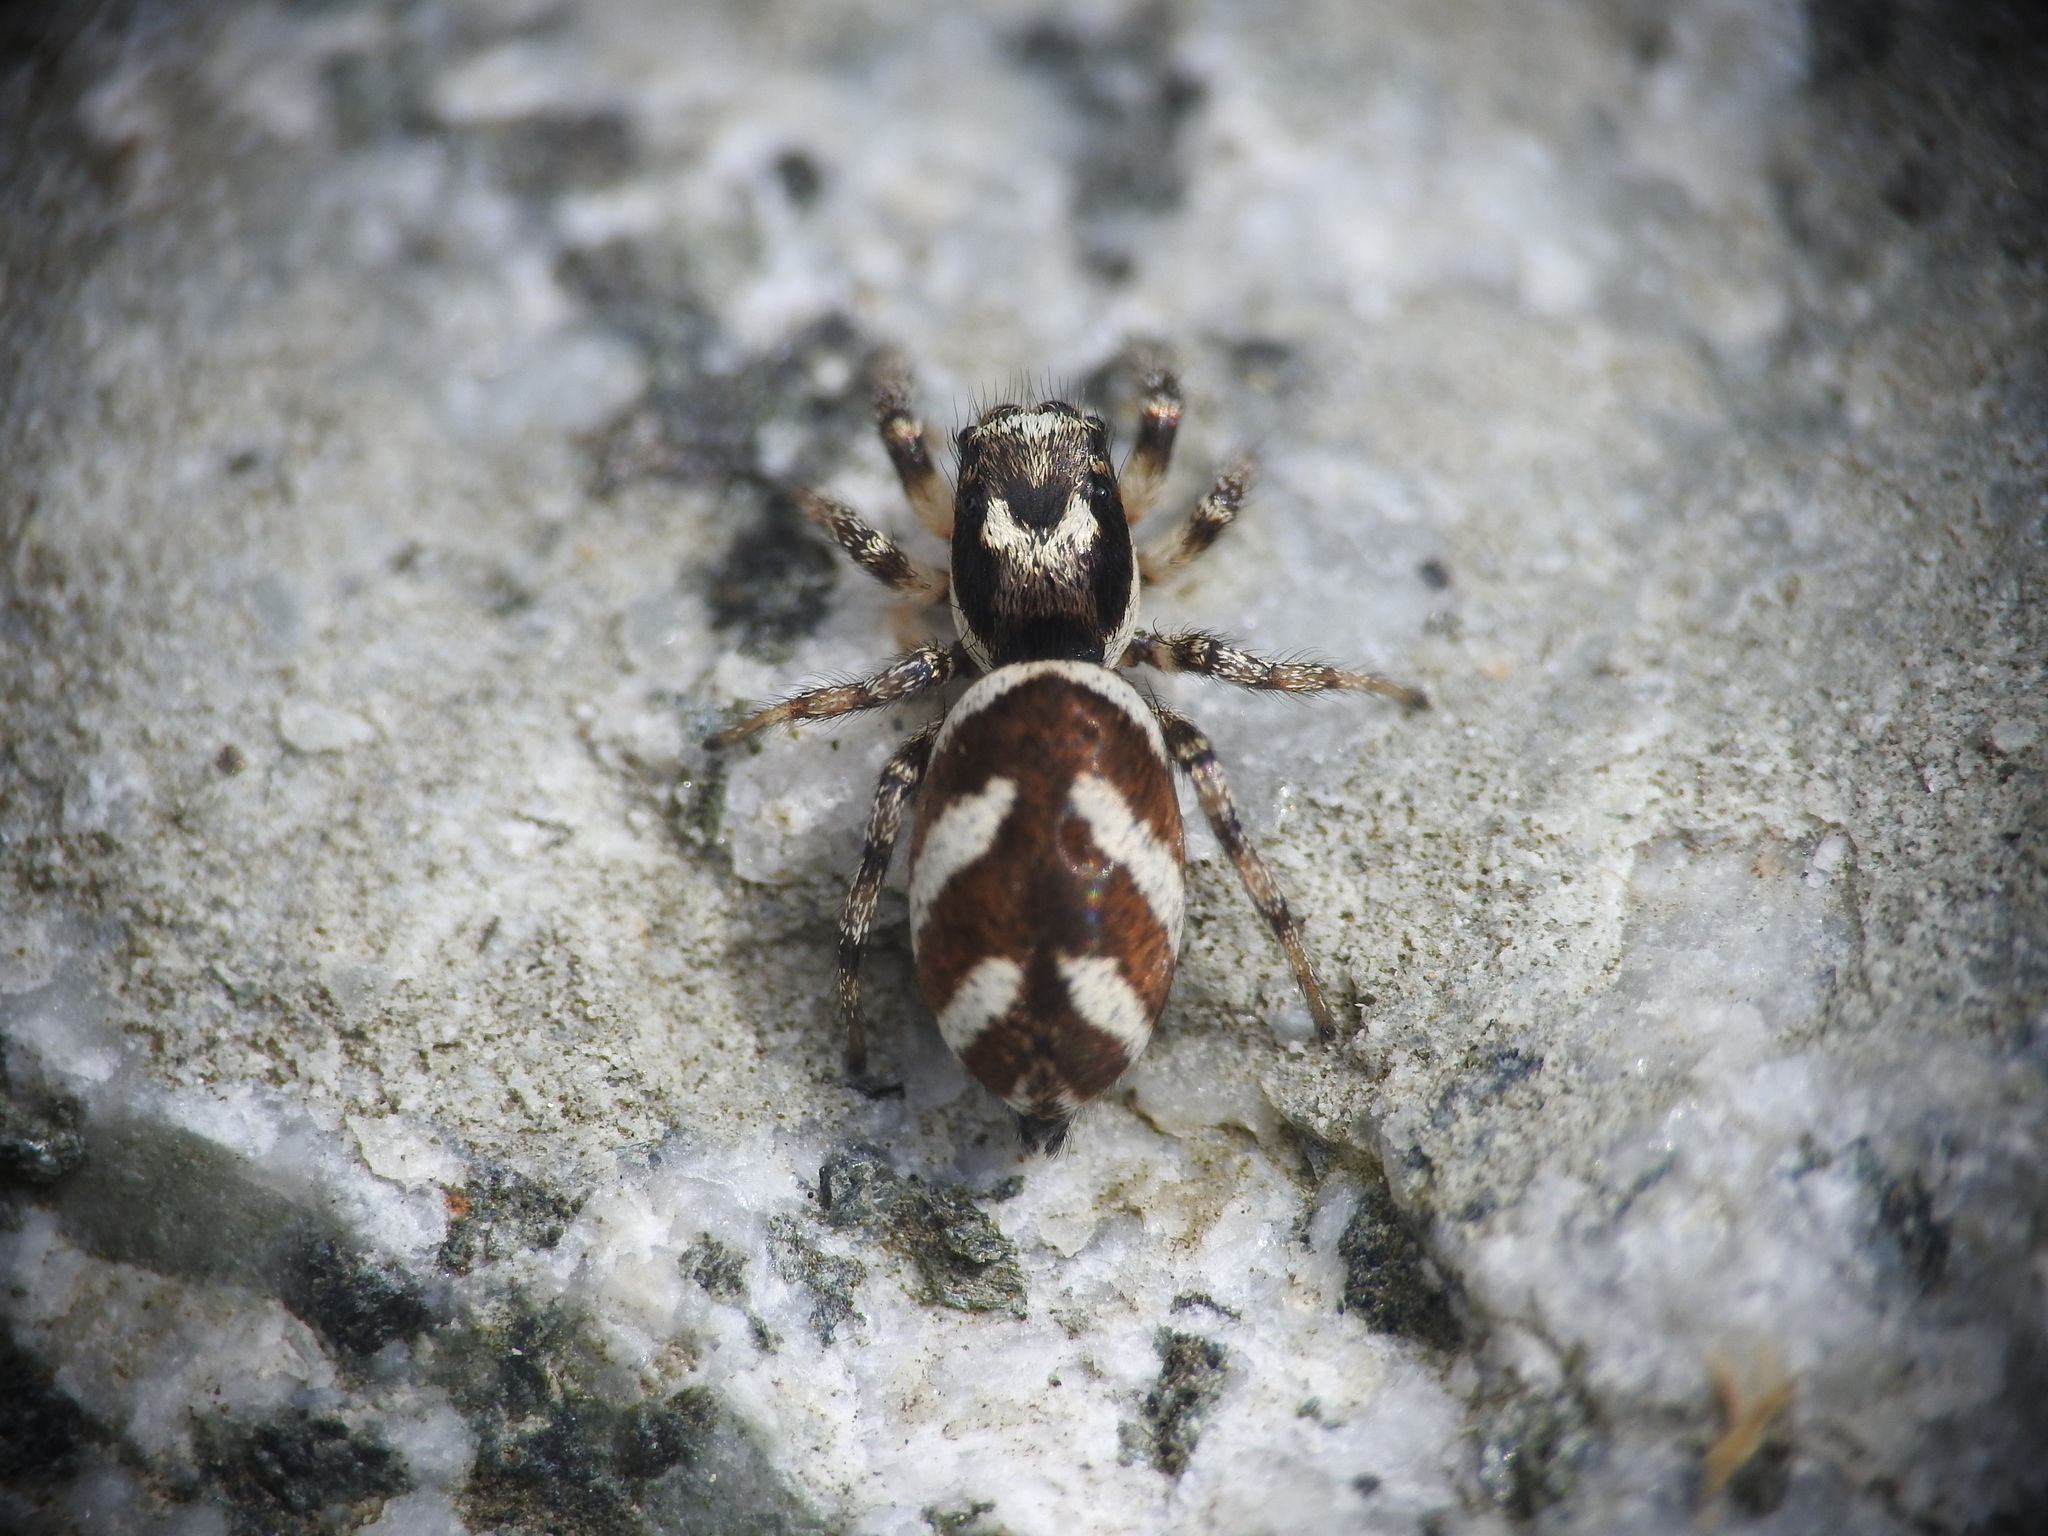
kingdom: Animalia
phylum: Arthropoda
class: Arachnida
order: Araneae
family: Salticidae
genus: Salticus
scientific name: Salticus scenicus
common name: Zebra jumper
